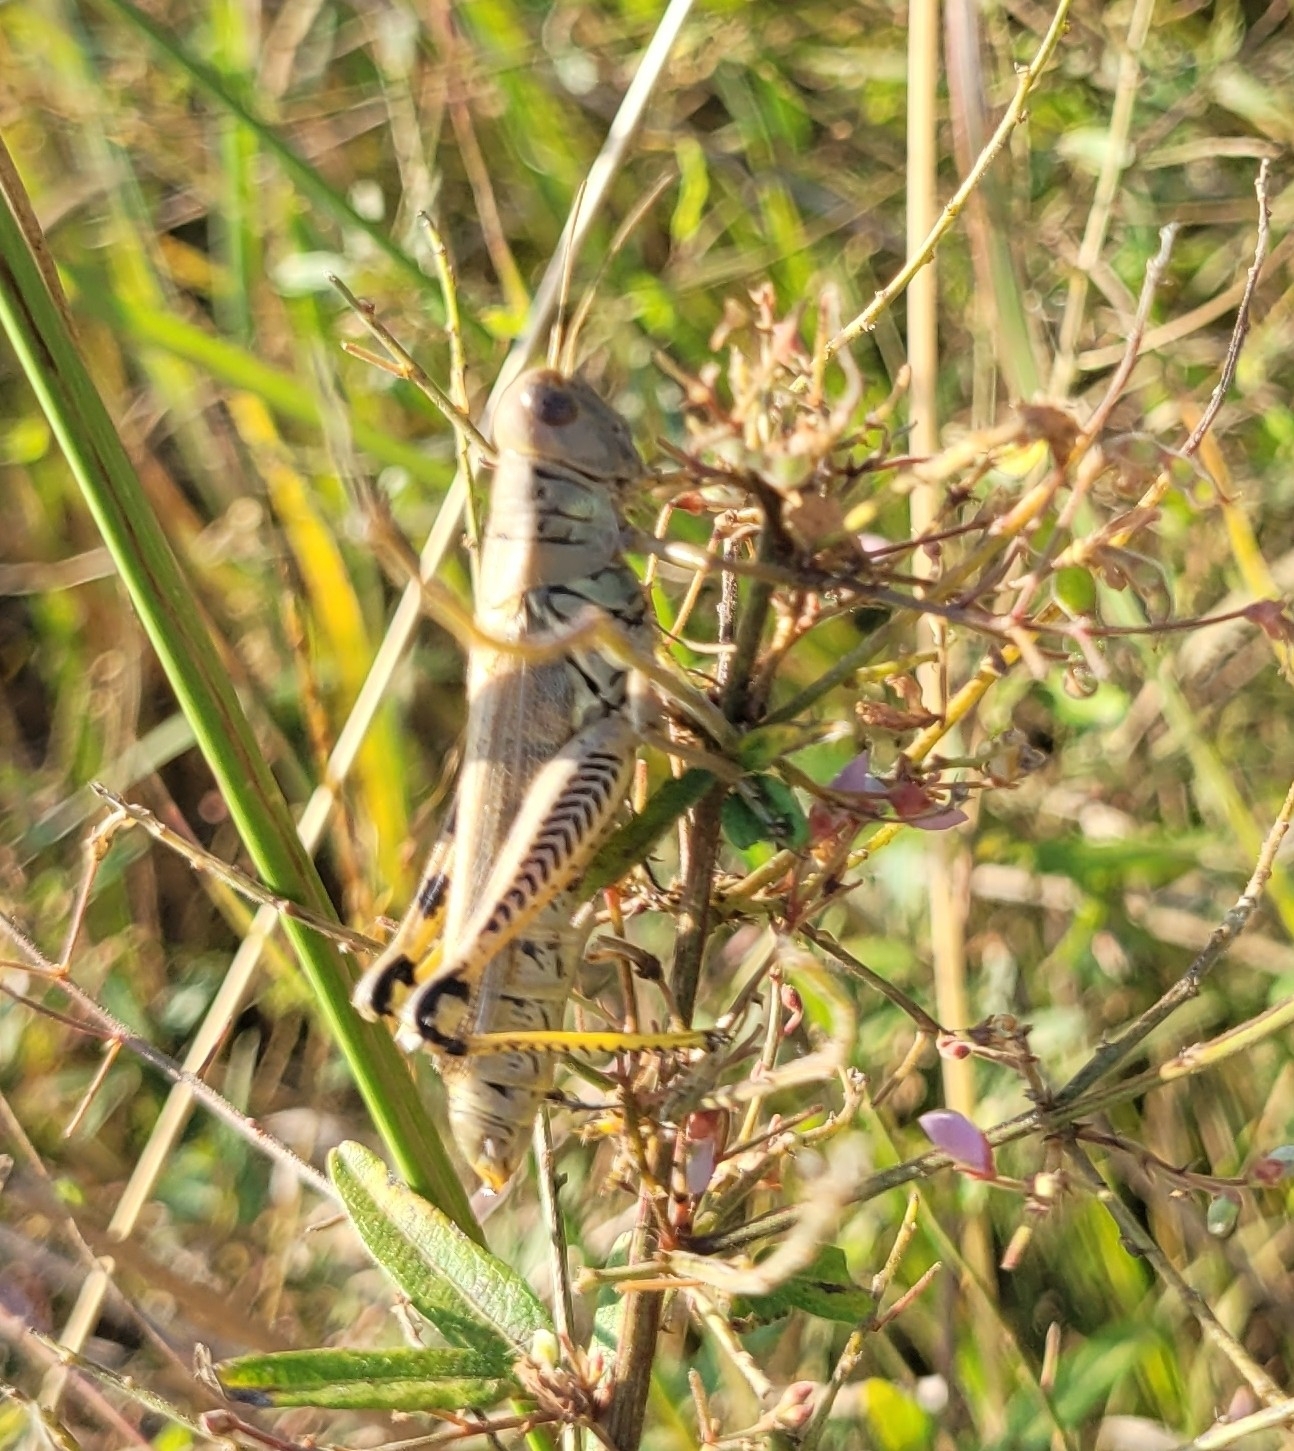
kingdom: Animalia
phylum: Arthropoda
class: Insecta
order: Orthoptera
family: Acrididae
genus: Melanoplus
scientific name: Melanoplus differentialis
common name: Differential grasshopper
